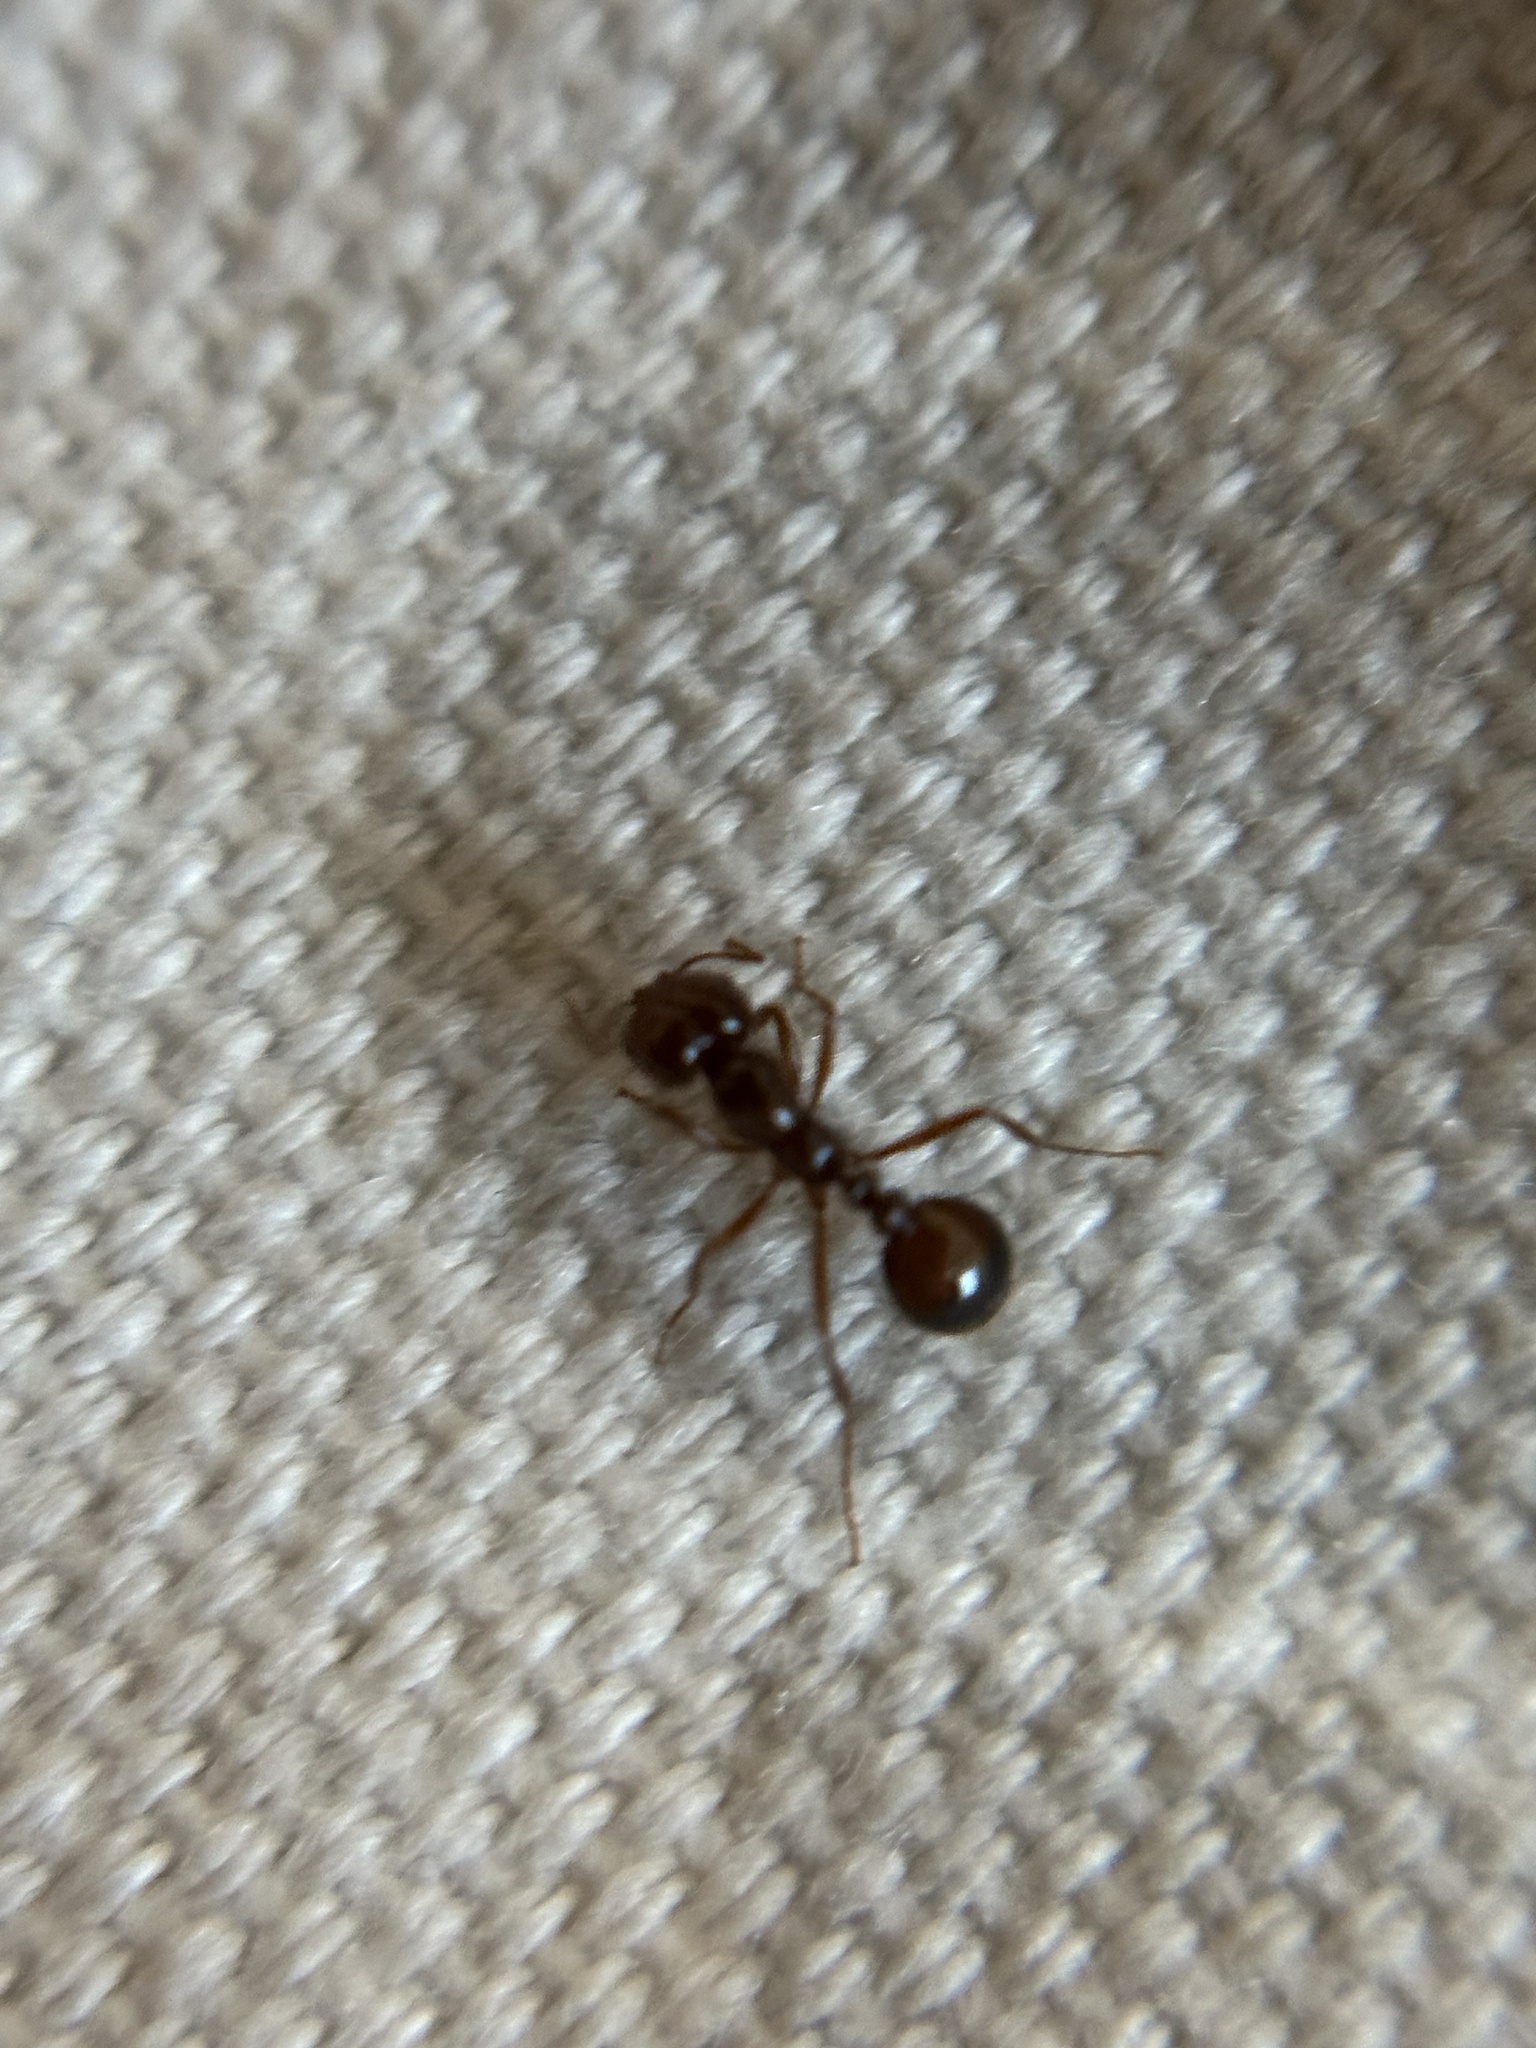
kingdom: Animalia
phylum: Arthropoda
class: Insecta
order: Hymenoptera
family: Formicidae
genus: Solenopsis
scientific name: Solenopsis invicta
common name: Red imported fire ant
